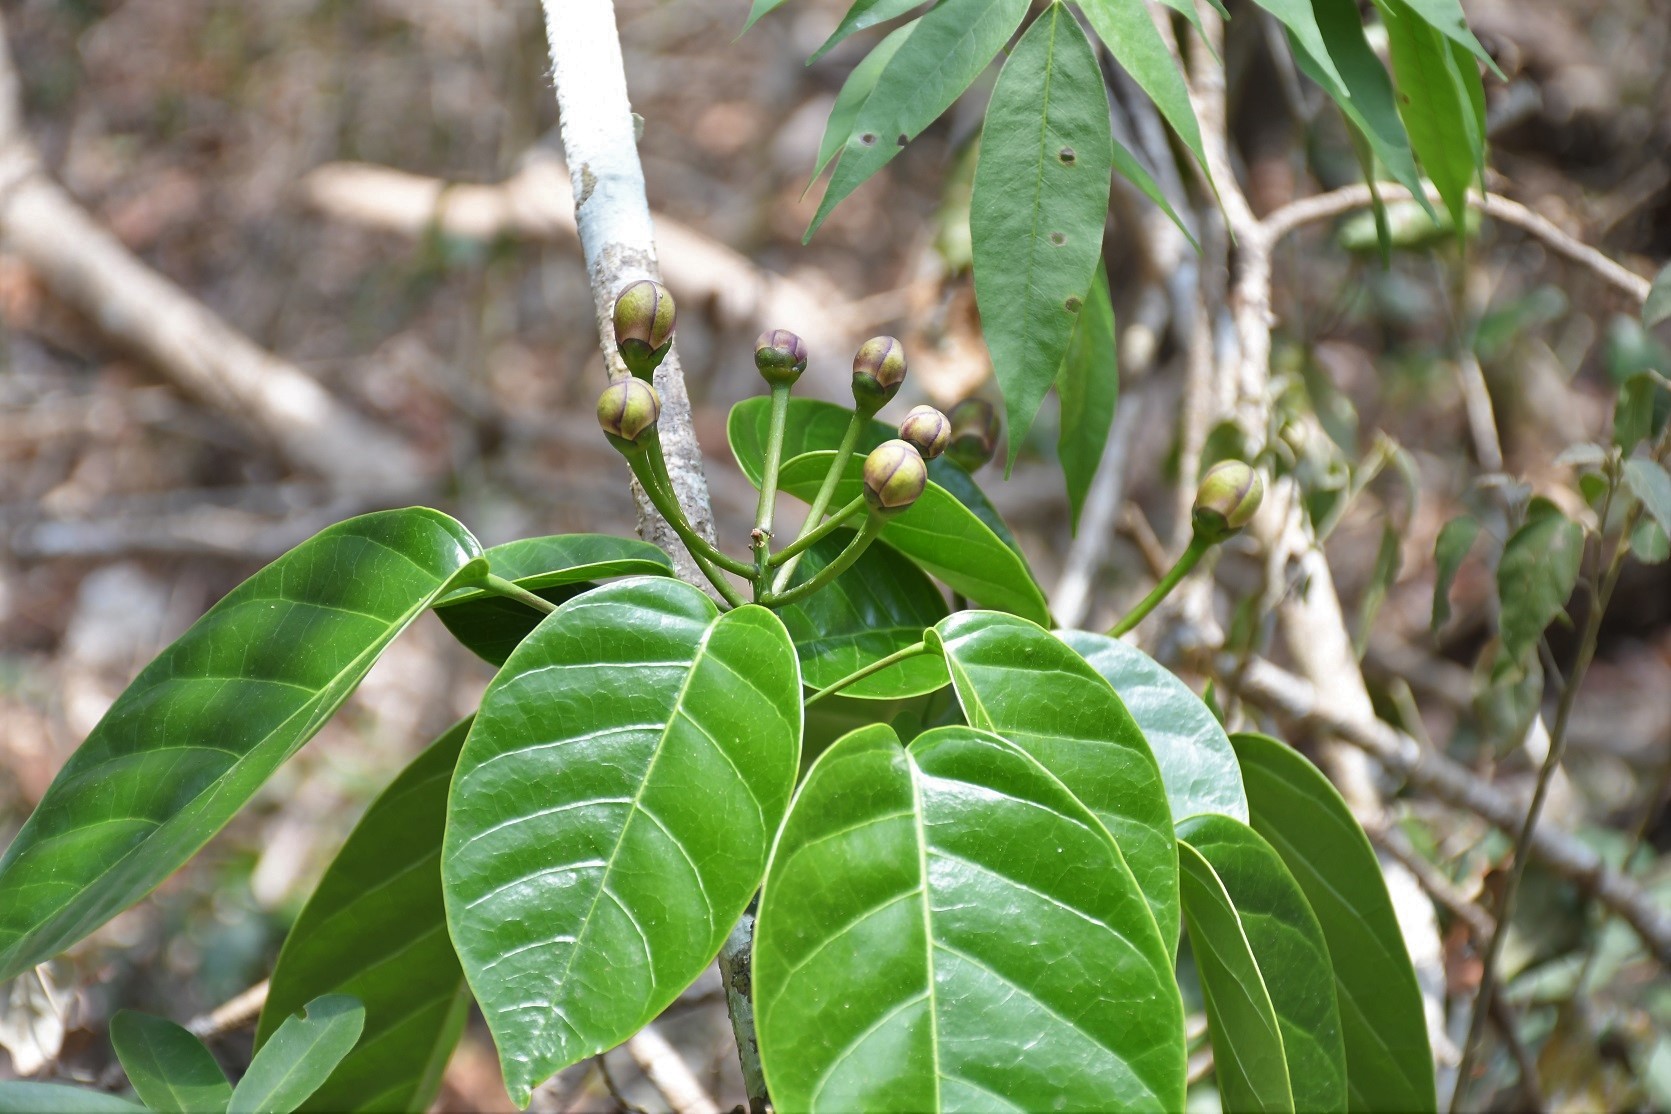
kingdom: Plantae
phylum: Tracheophyta
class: Magnoliopsida
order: Boraginales
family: Ehretiaceae
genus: Bourreria
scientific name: Bourreria huanita
